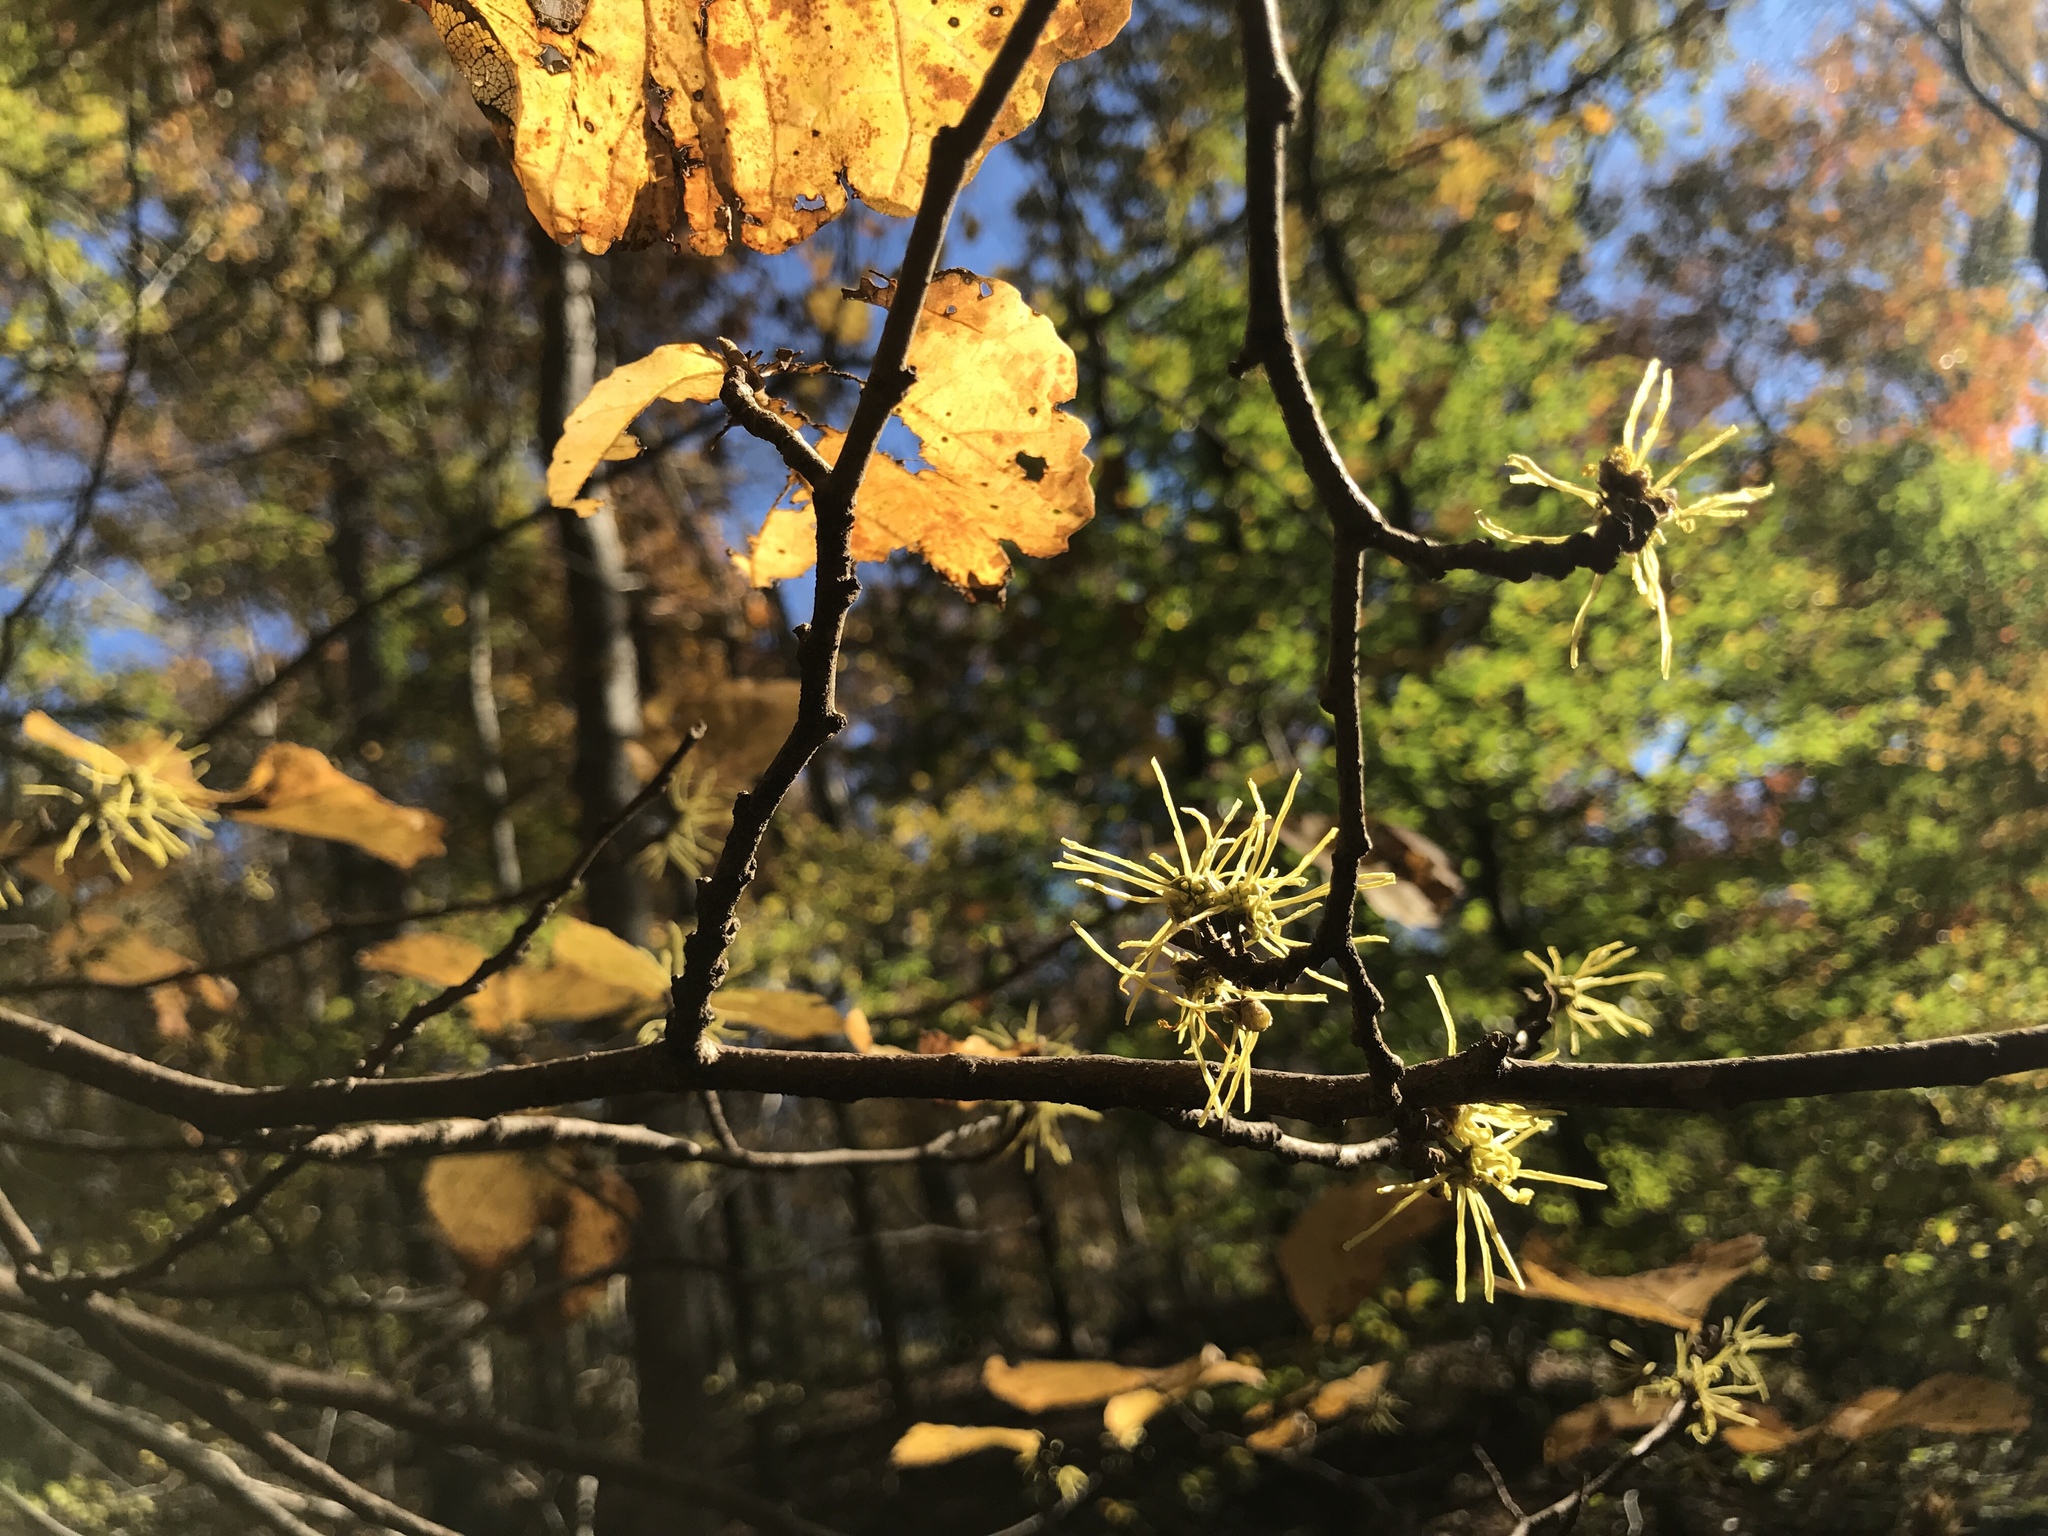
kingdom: Plantae
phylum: Tracheophyta
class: Magnoliopsida
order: Saxifragales
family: Hamamelidaceae
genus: Hamamelis
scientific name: Hamamelis virginiana
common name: Witch-hazel
